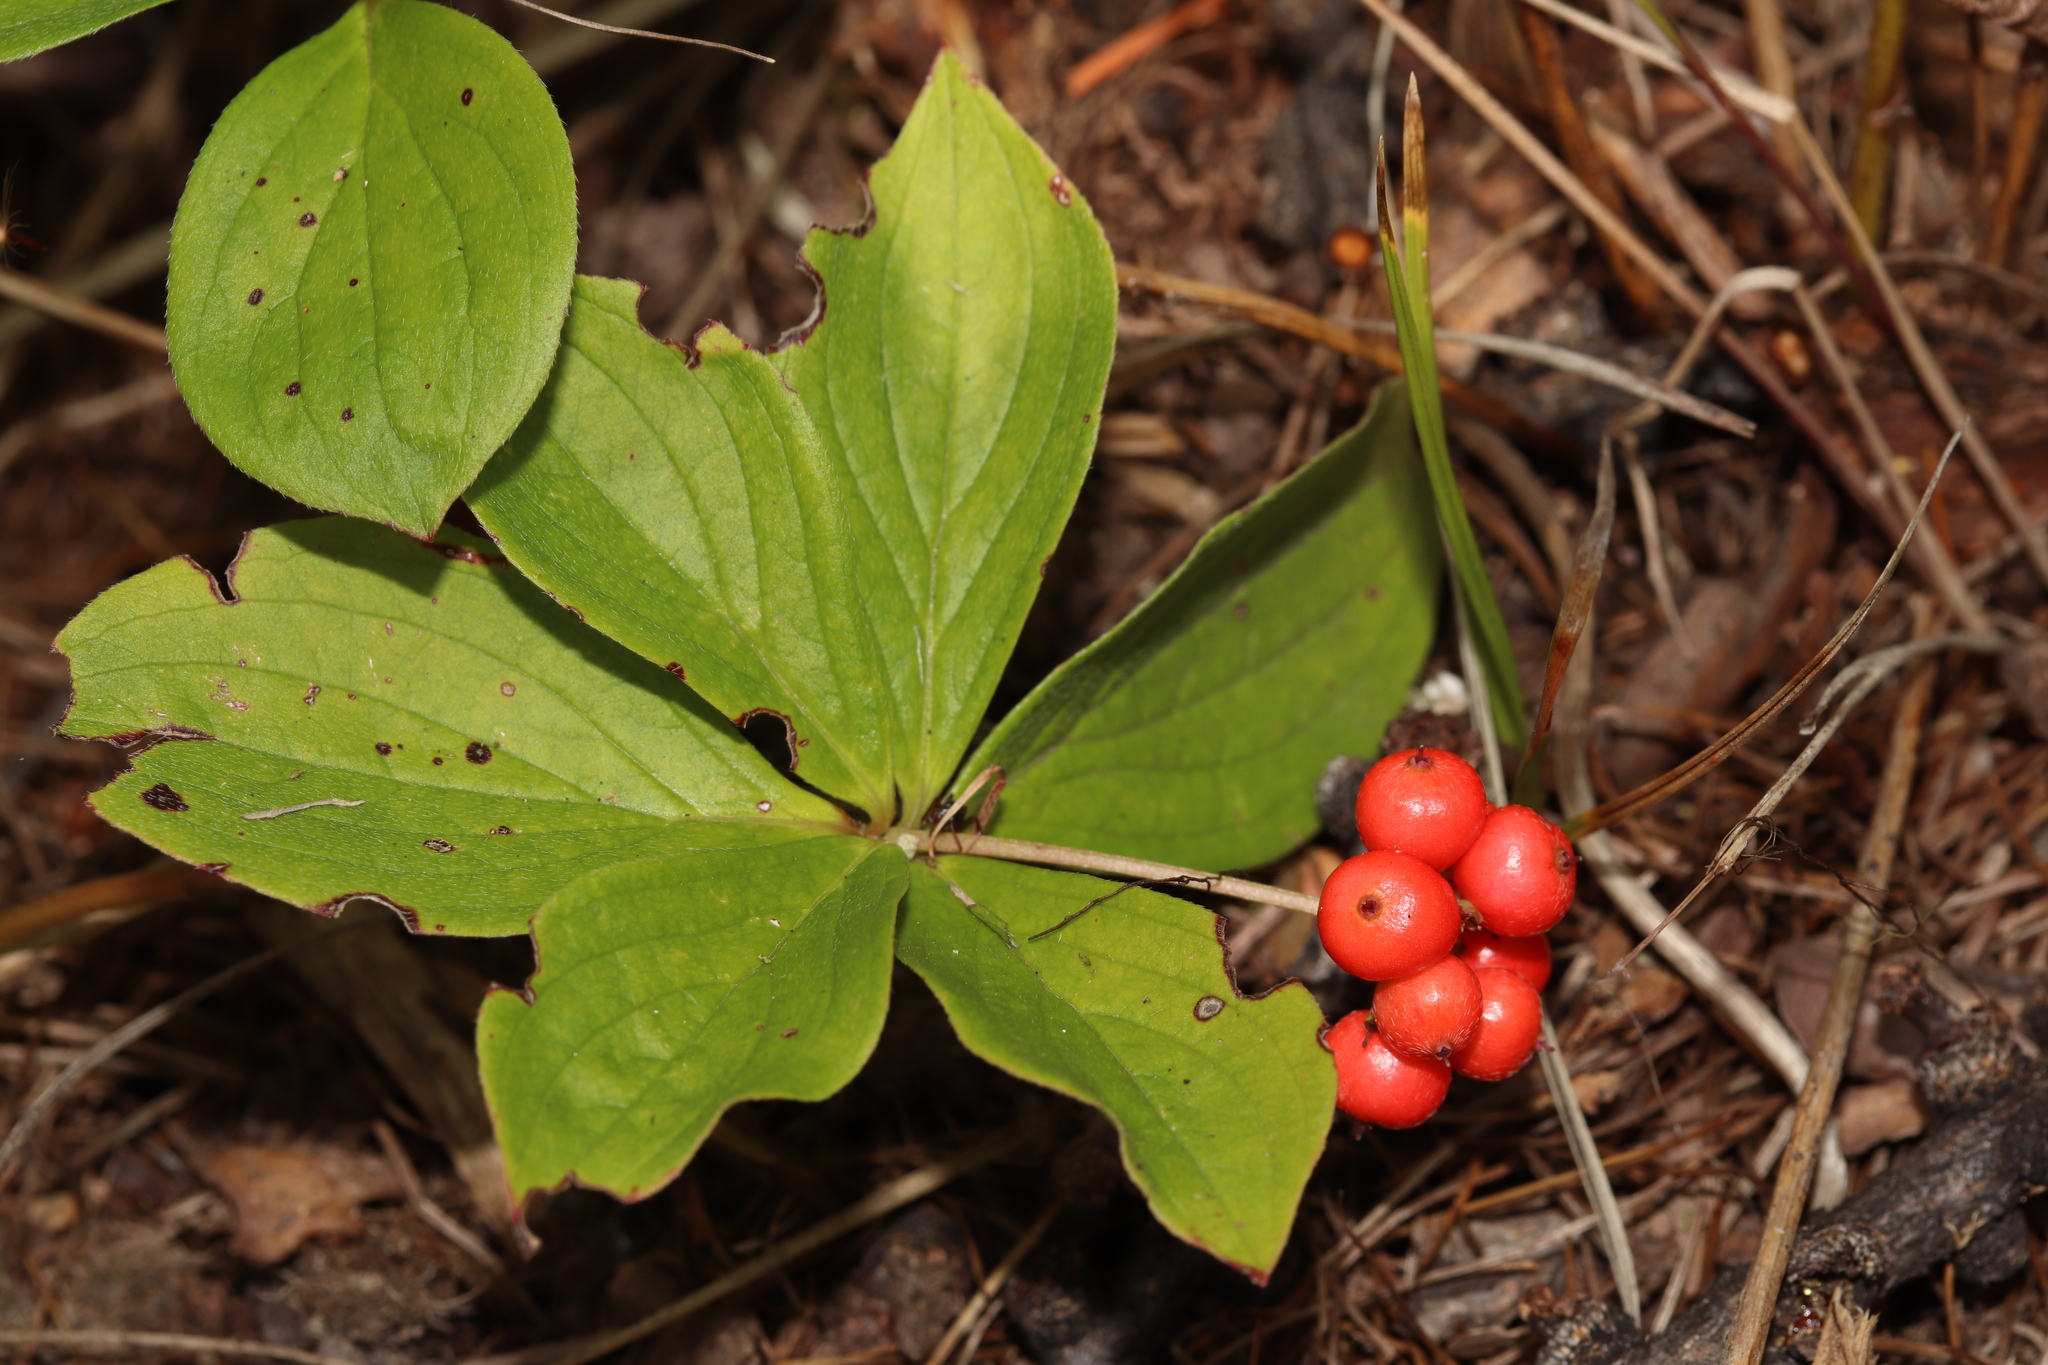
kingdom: Plantae
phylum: Tracheophyta
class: Magnoliopsida
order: Cornales
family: Cornaceae
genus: Cornus
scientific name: Cornus canadensis
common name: Creeping dogwood
